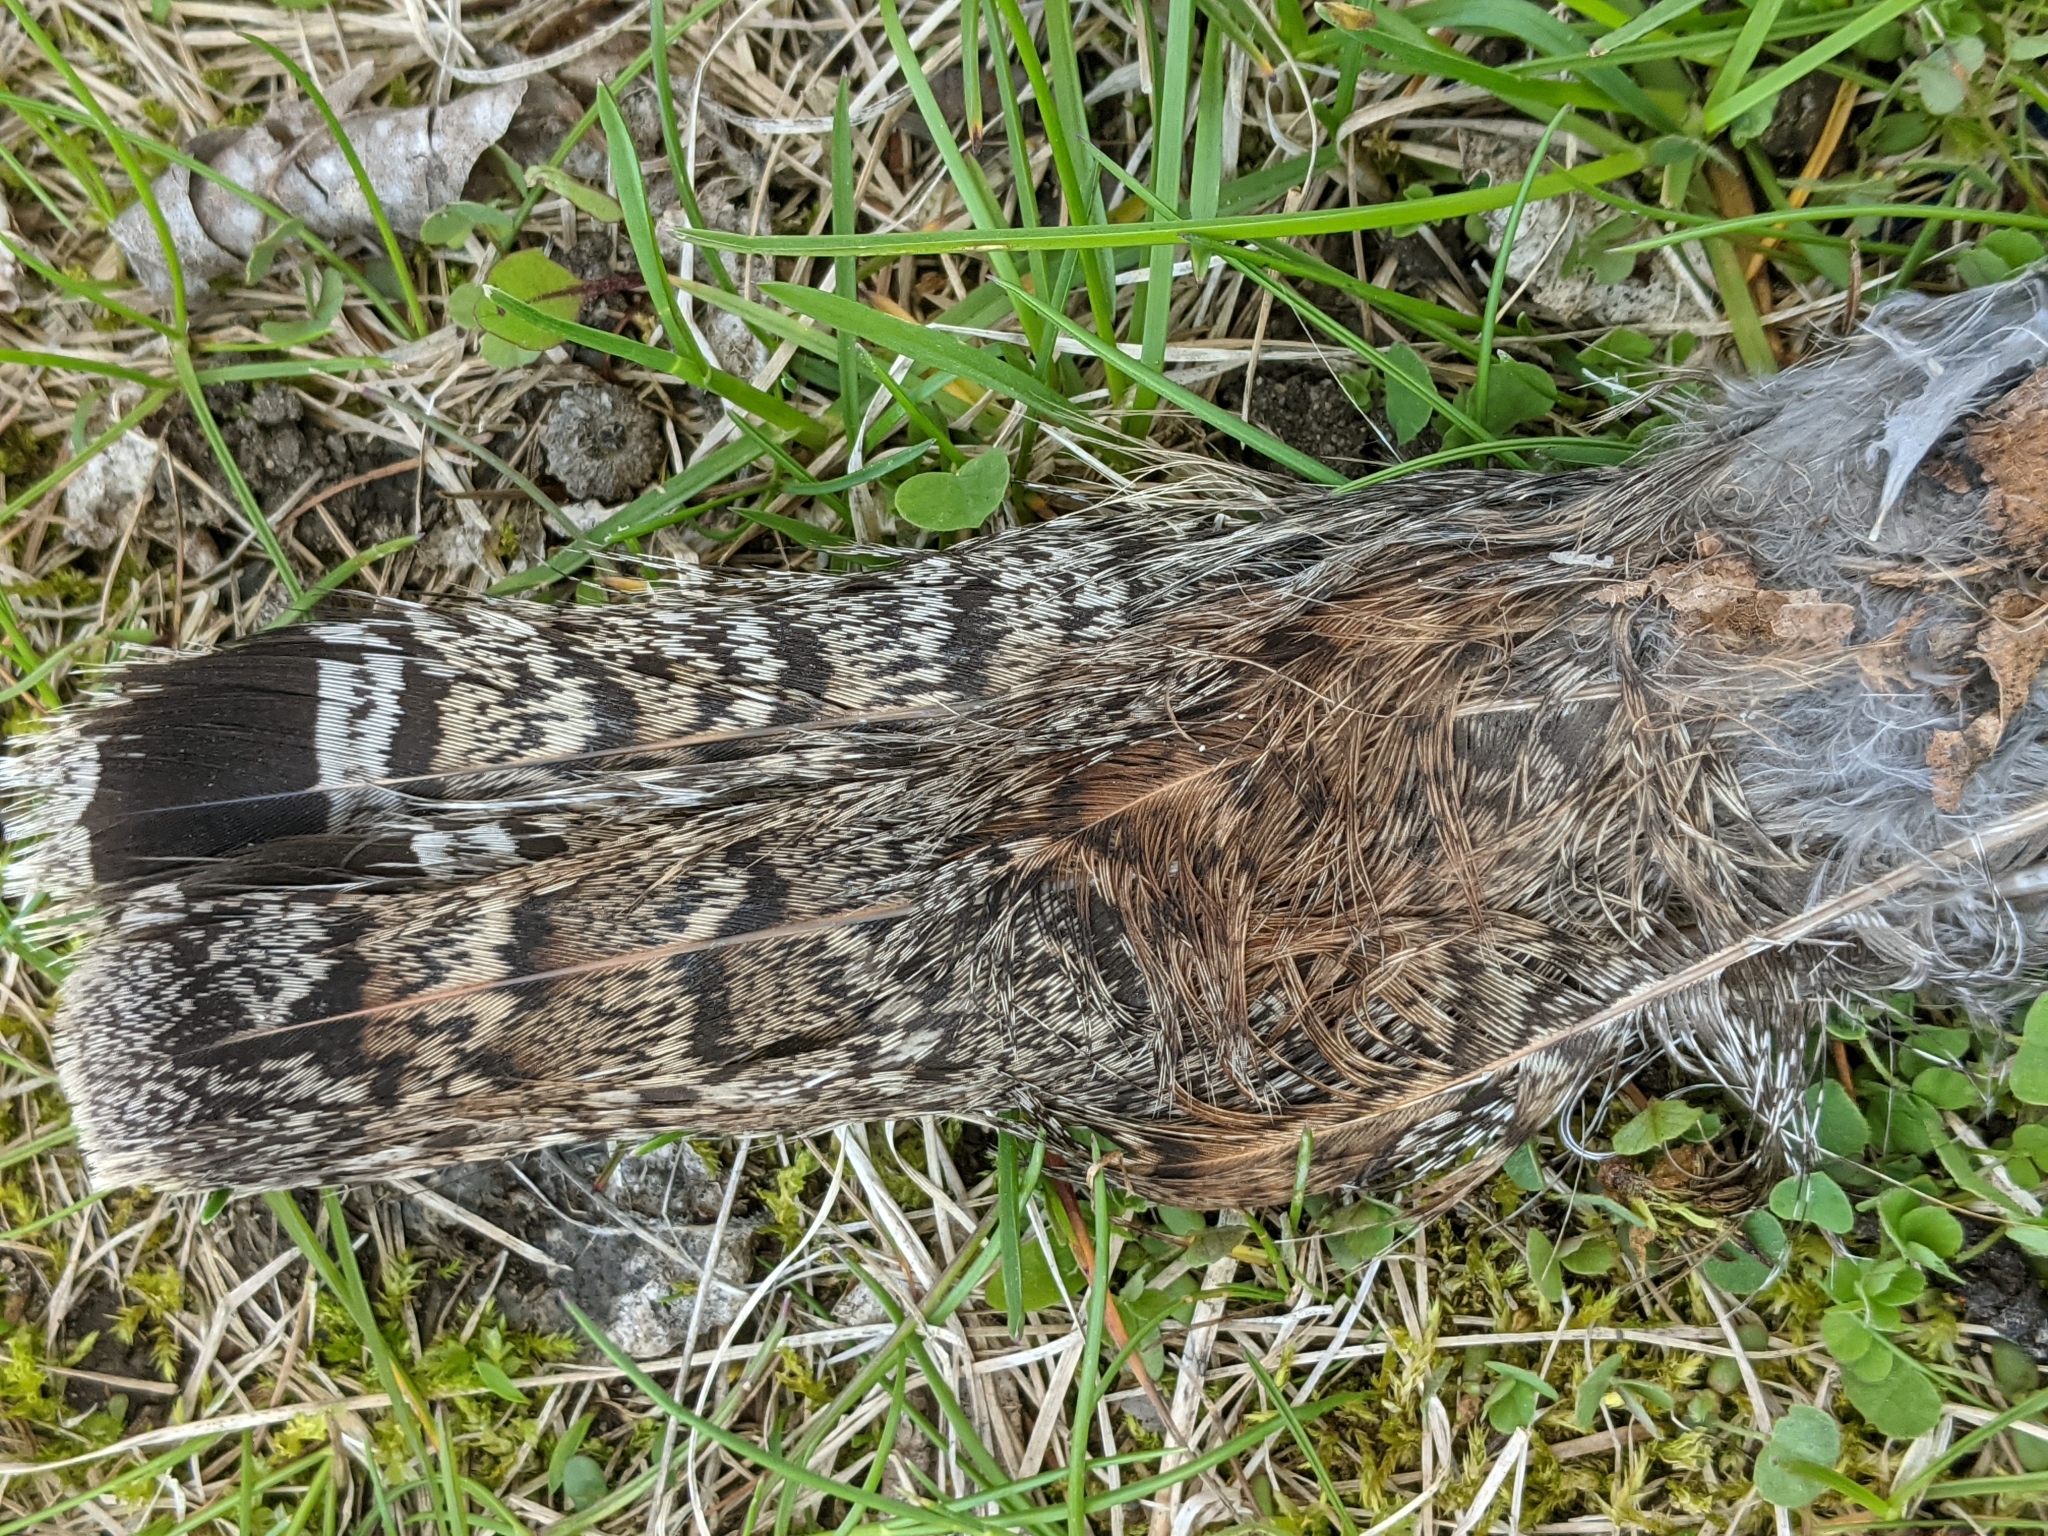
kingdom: Animalia
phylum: Chordata
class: Aves
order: Galliformes
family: Phasianidae
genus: Bonasa
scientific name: Bonasa umbellus
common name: Ruffed grouse
